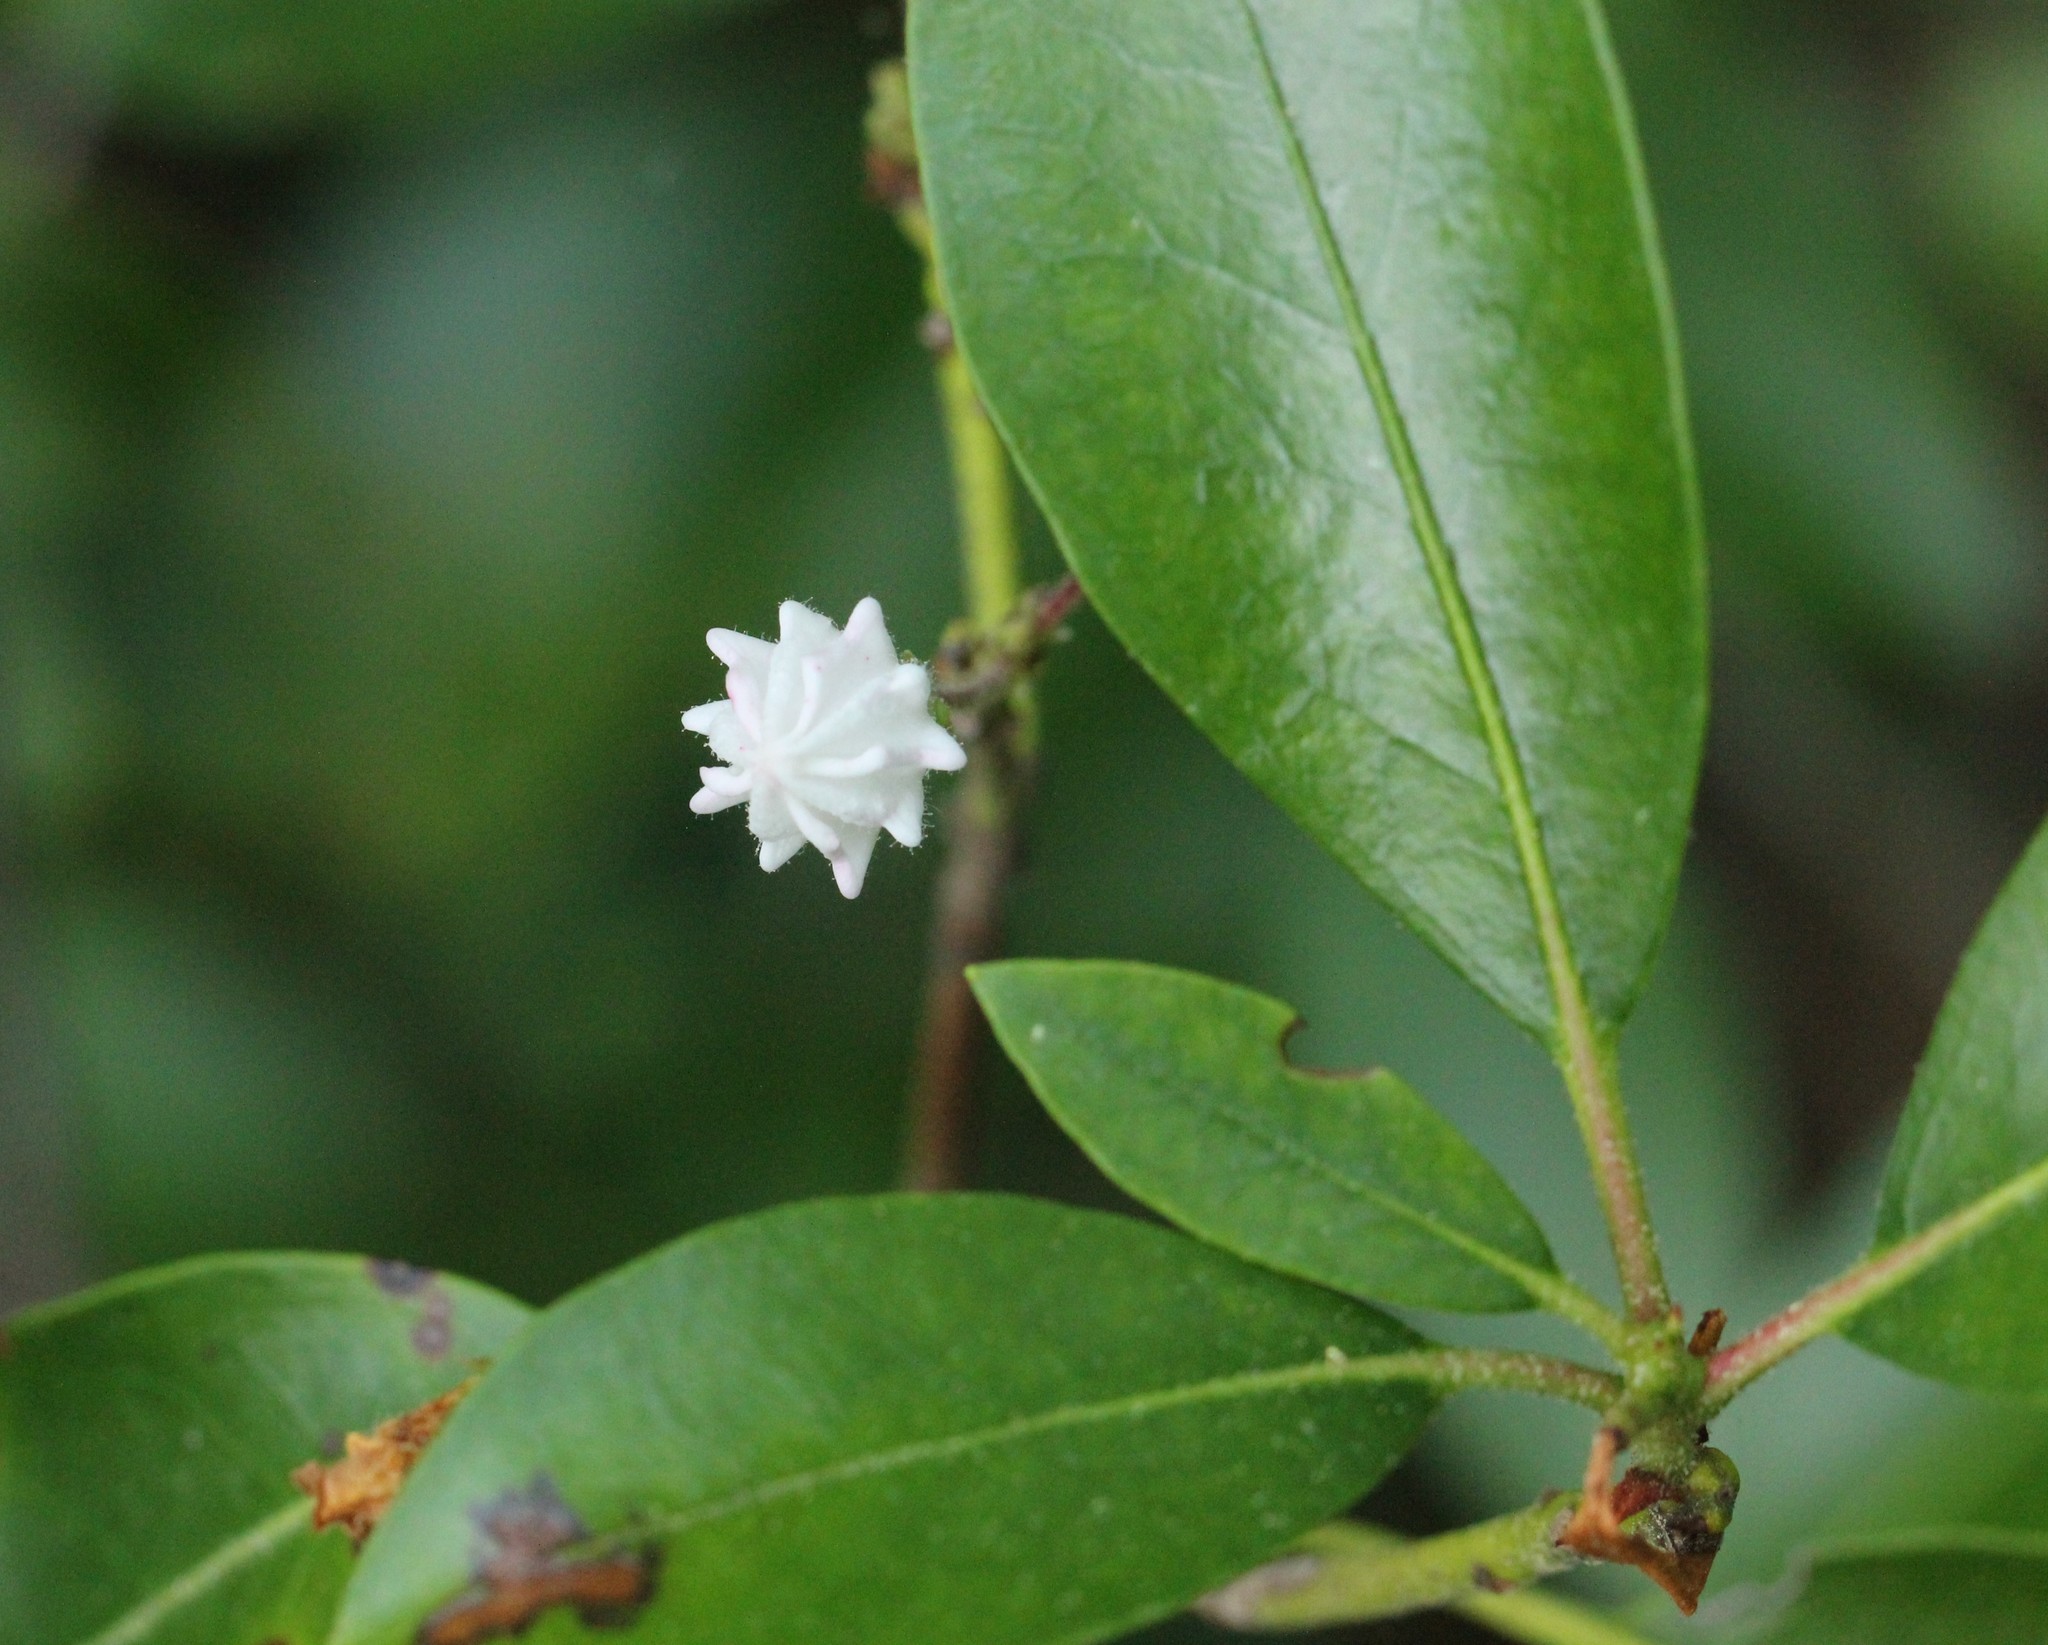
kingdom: Plantae
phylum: Tracheophyta
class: Magnoliopsida
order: Ericales
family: Ericaceae
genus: Kalmia
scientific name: Kalmia latifolia
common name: Mountain-laurel
